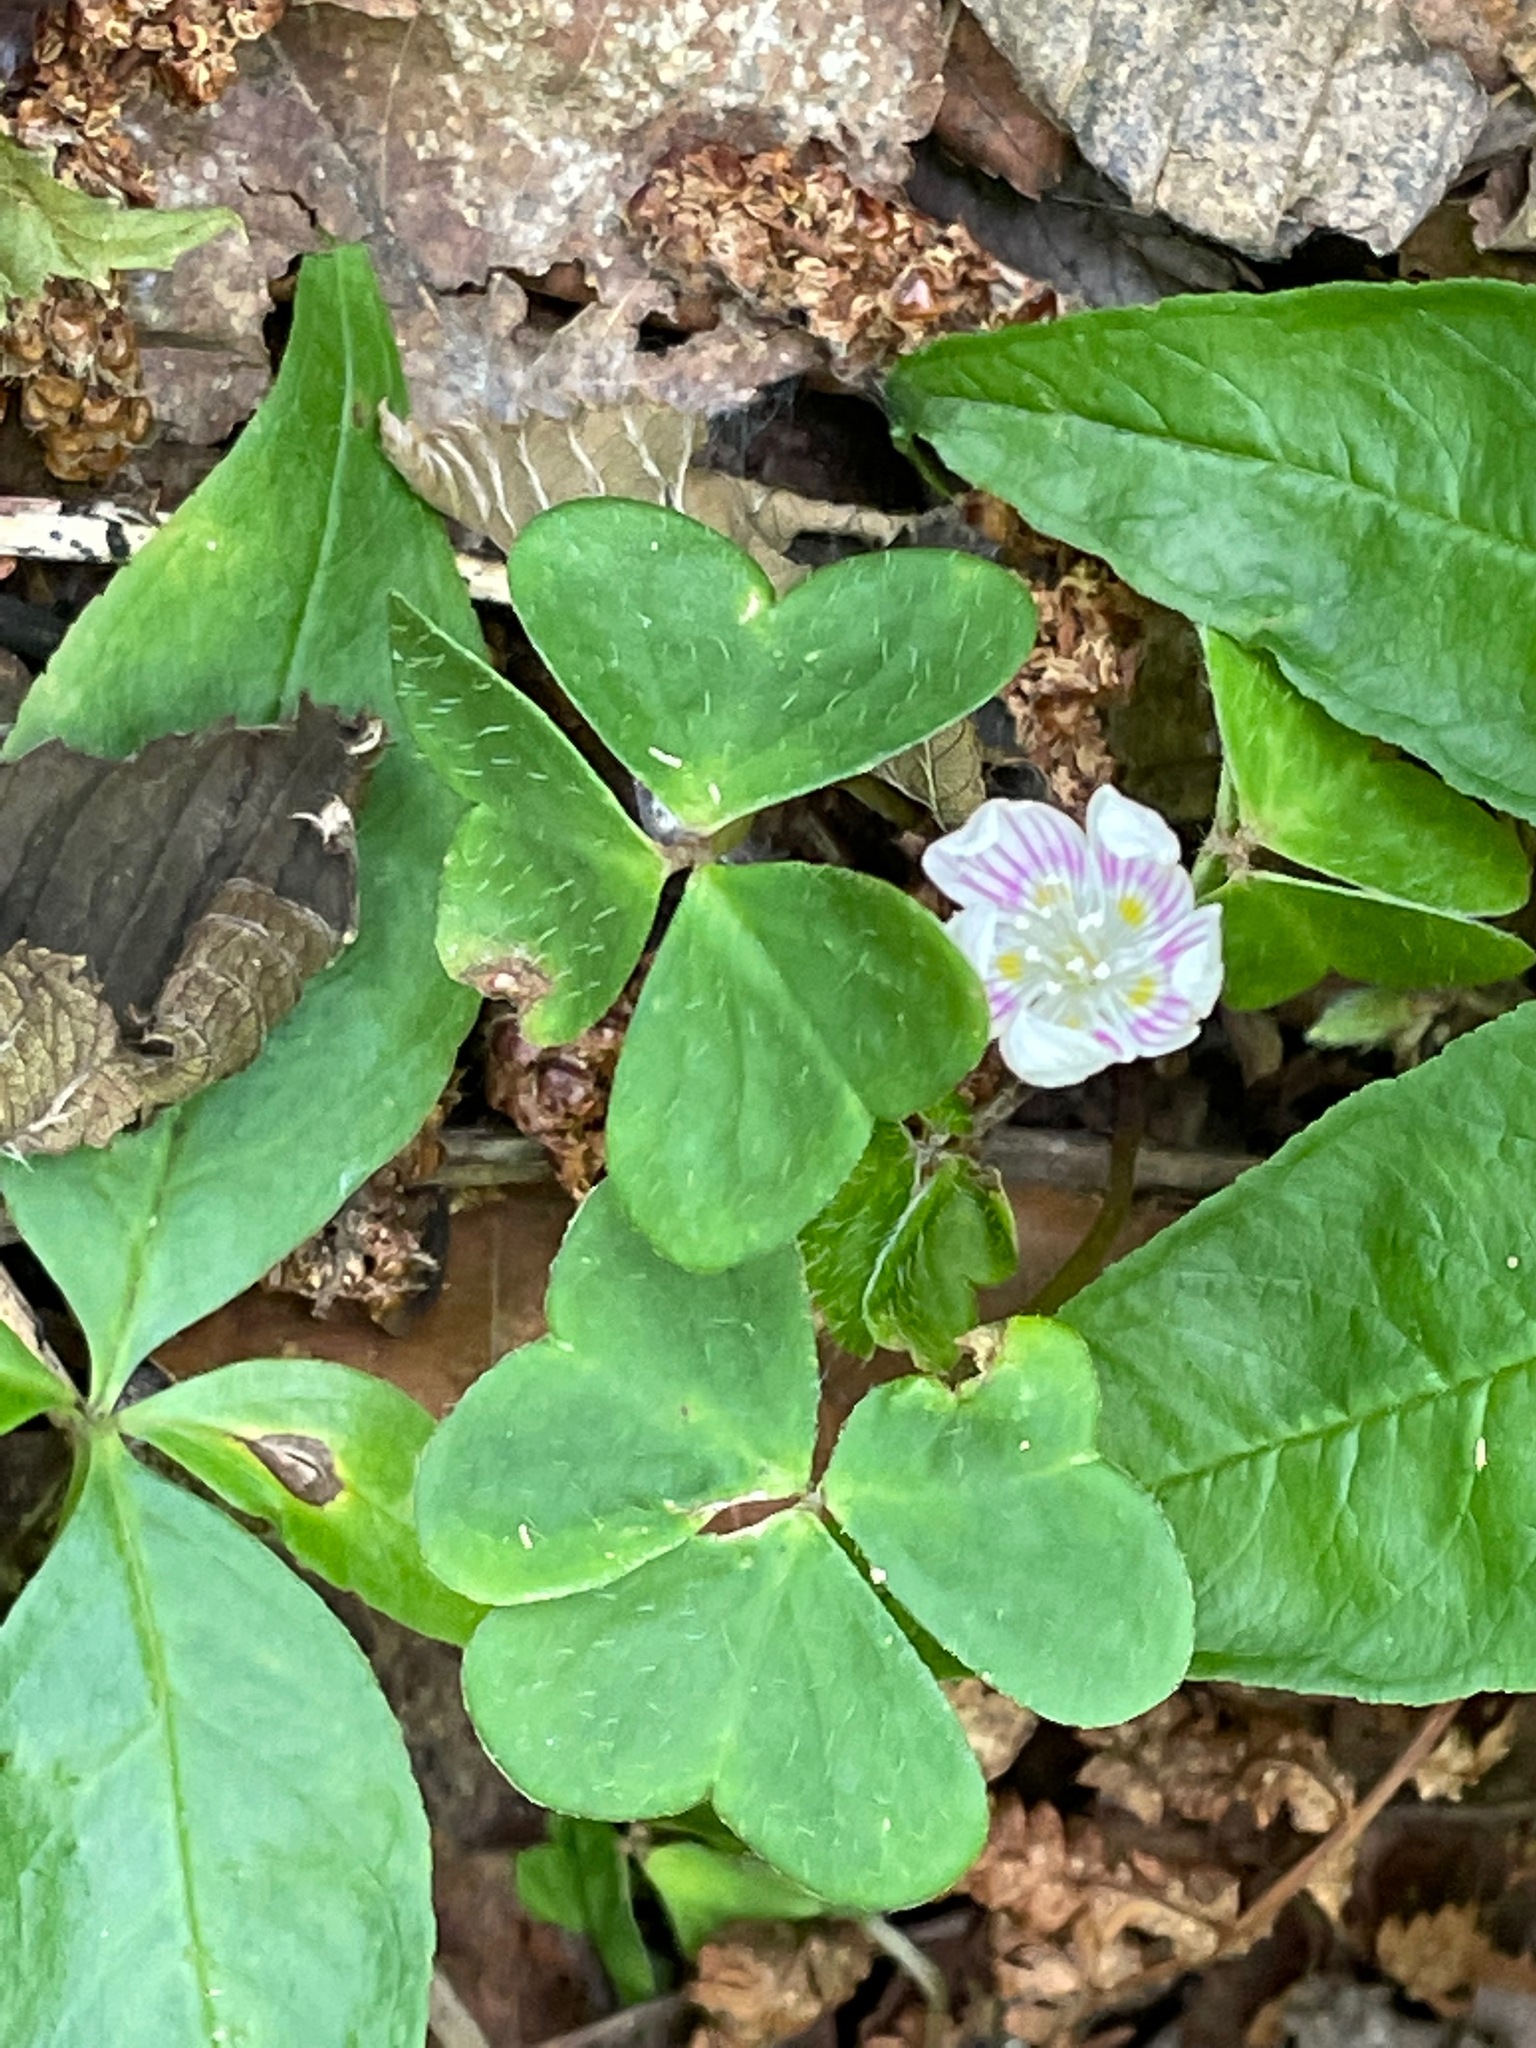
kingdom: Plantae
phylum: Tracheophyta
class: Magnoliopsida
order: Oxalidales
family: Oxalidaceae
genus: Oxalis
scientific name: Oxalis montana
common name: American wood-sorrel
